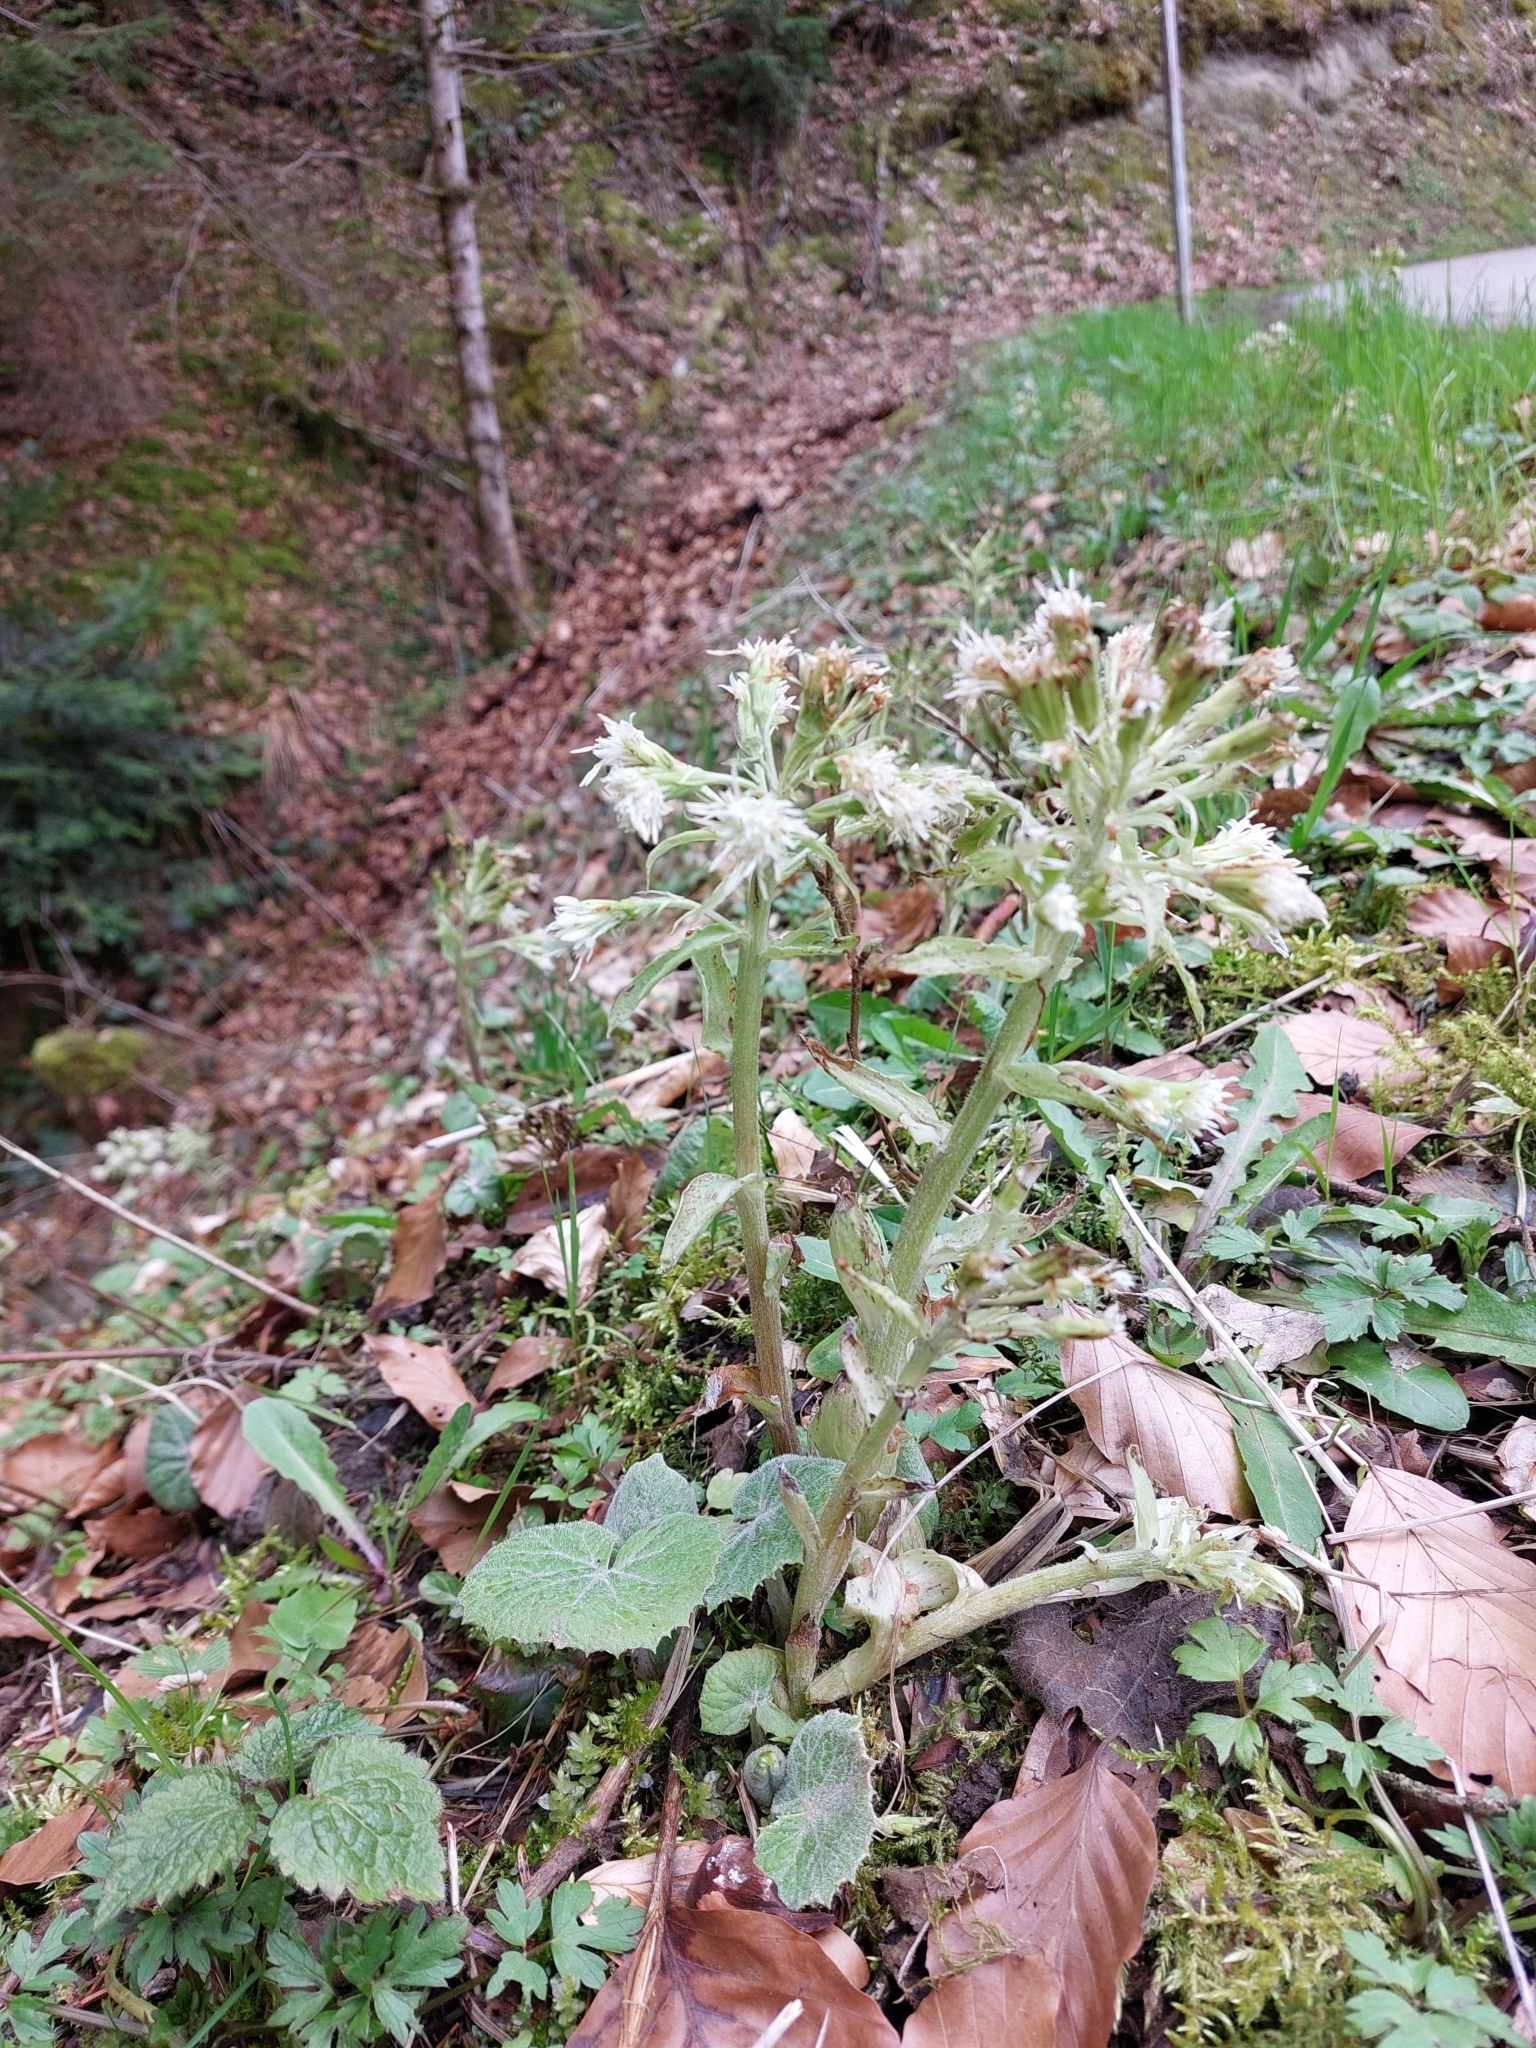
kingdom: Plantae
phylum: Tracheophyta
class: Magnoliopsida
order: Asterales
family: Asteraceae
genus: Petasites
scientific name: Petasites albus
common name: White butterbur
